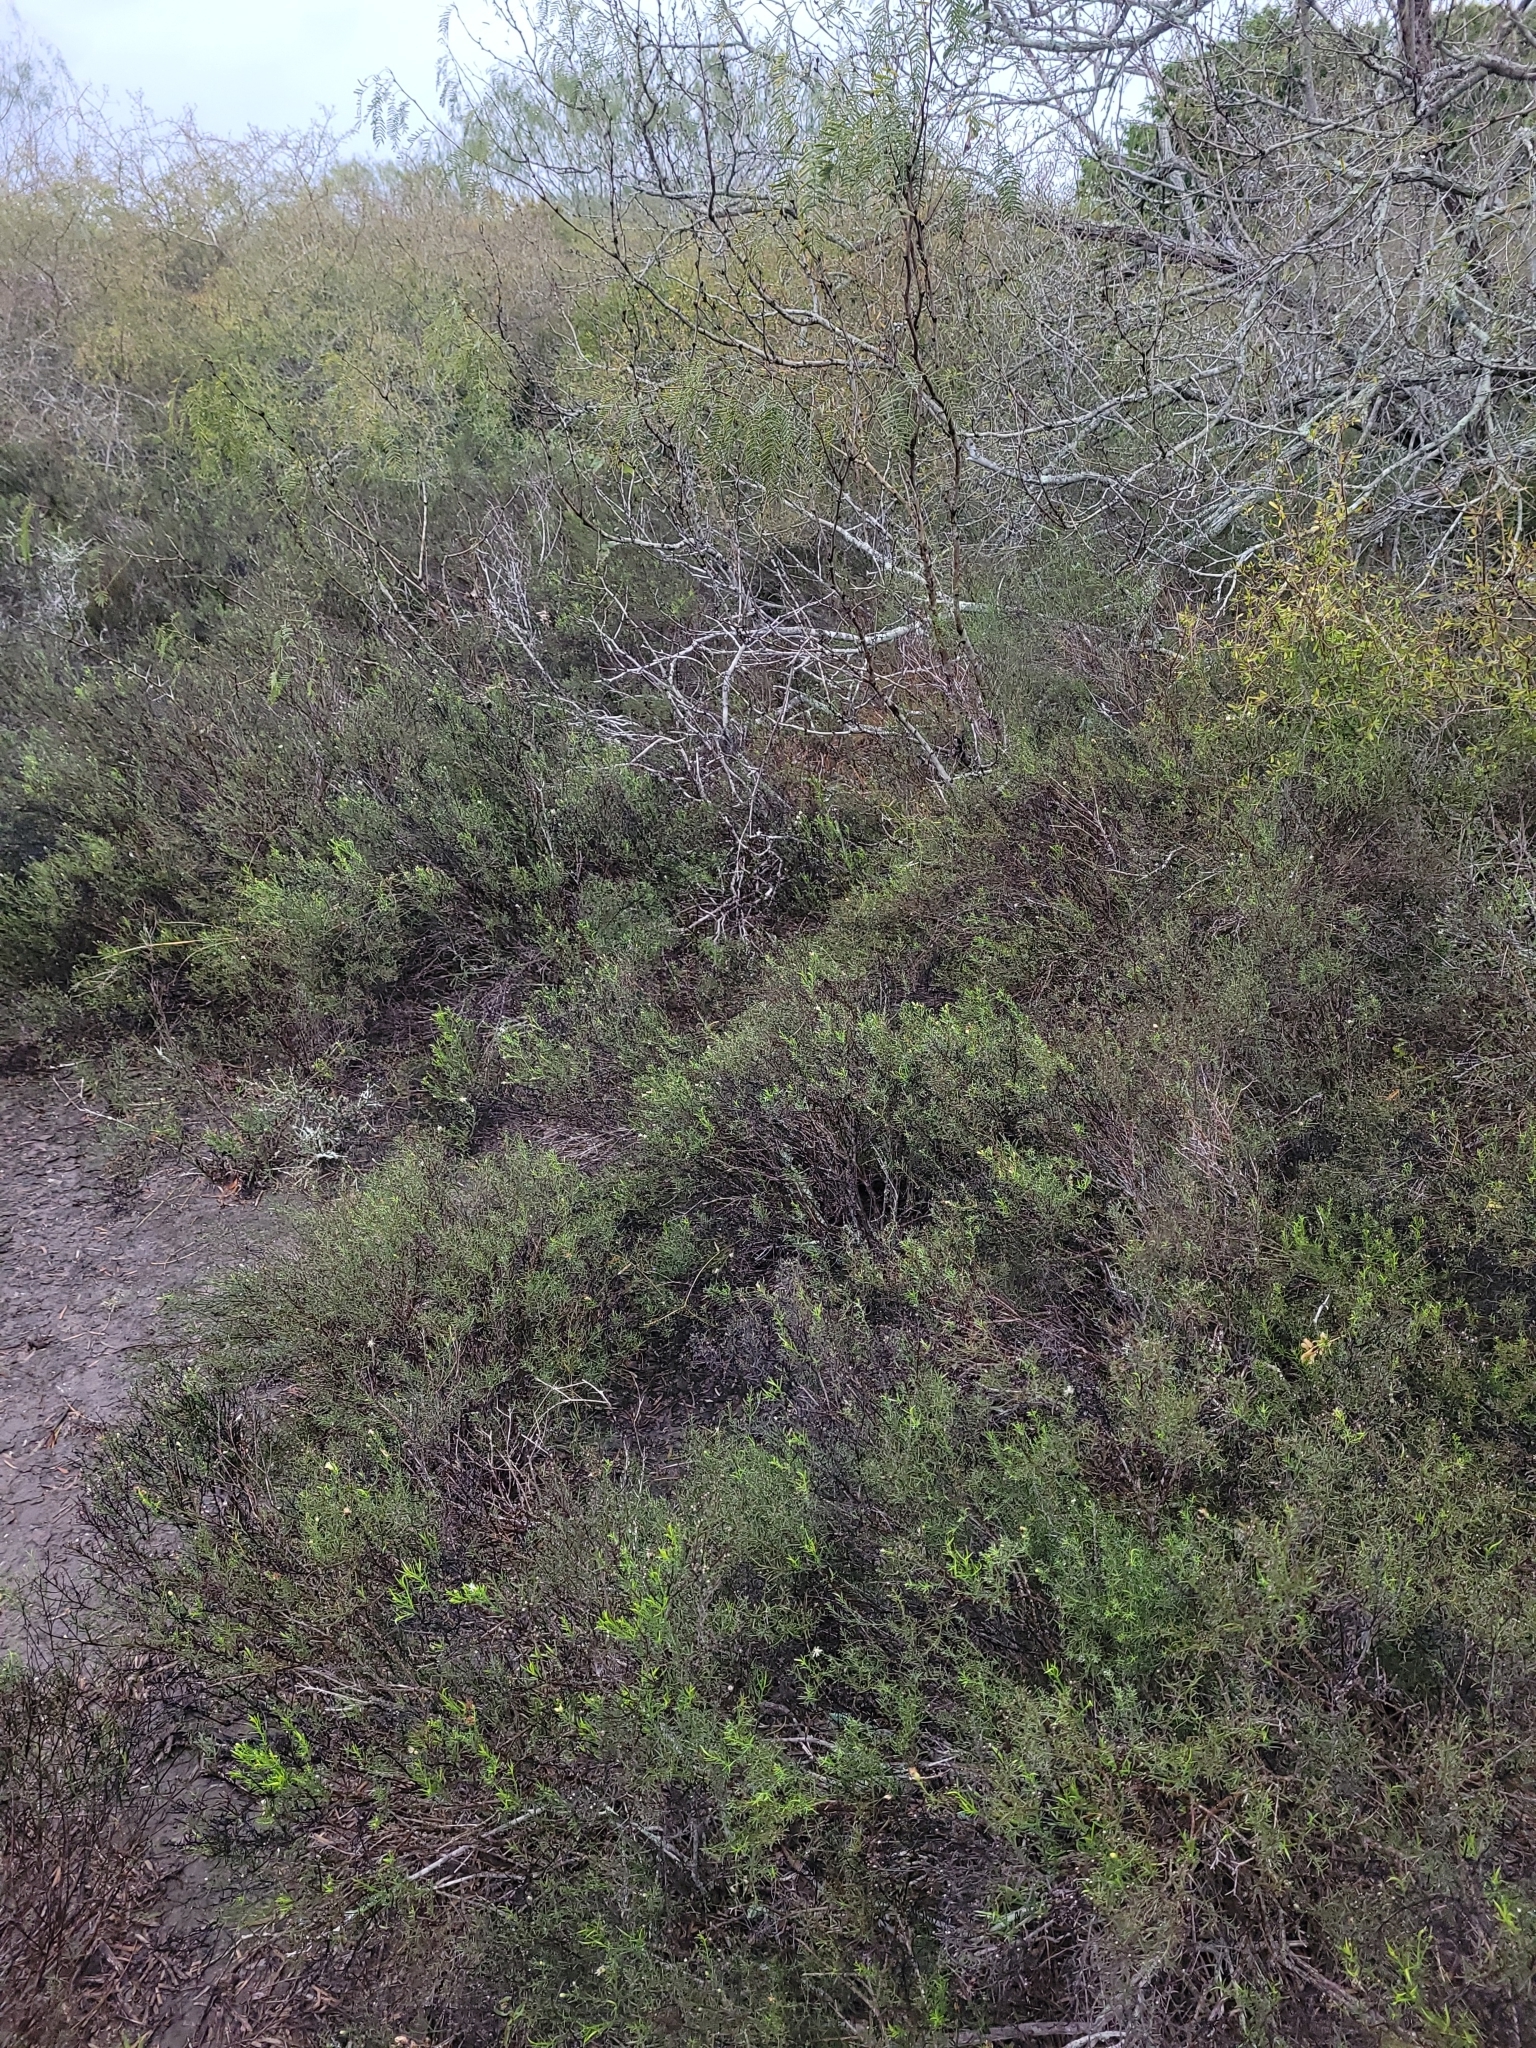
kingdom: Plantae
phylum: Tracheophyta
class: Magnoliopsida
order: Asterales
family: Asteraceae
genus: Medranoa
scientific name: Medranoa palmeri
